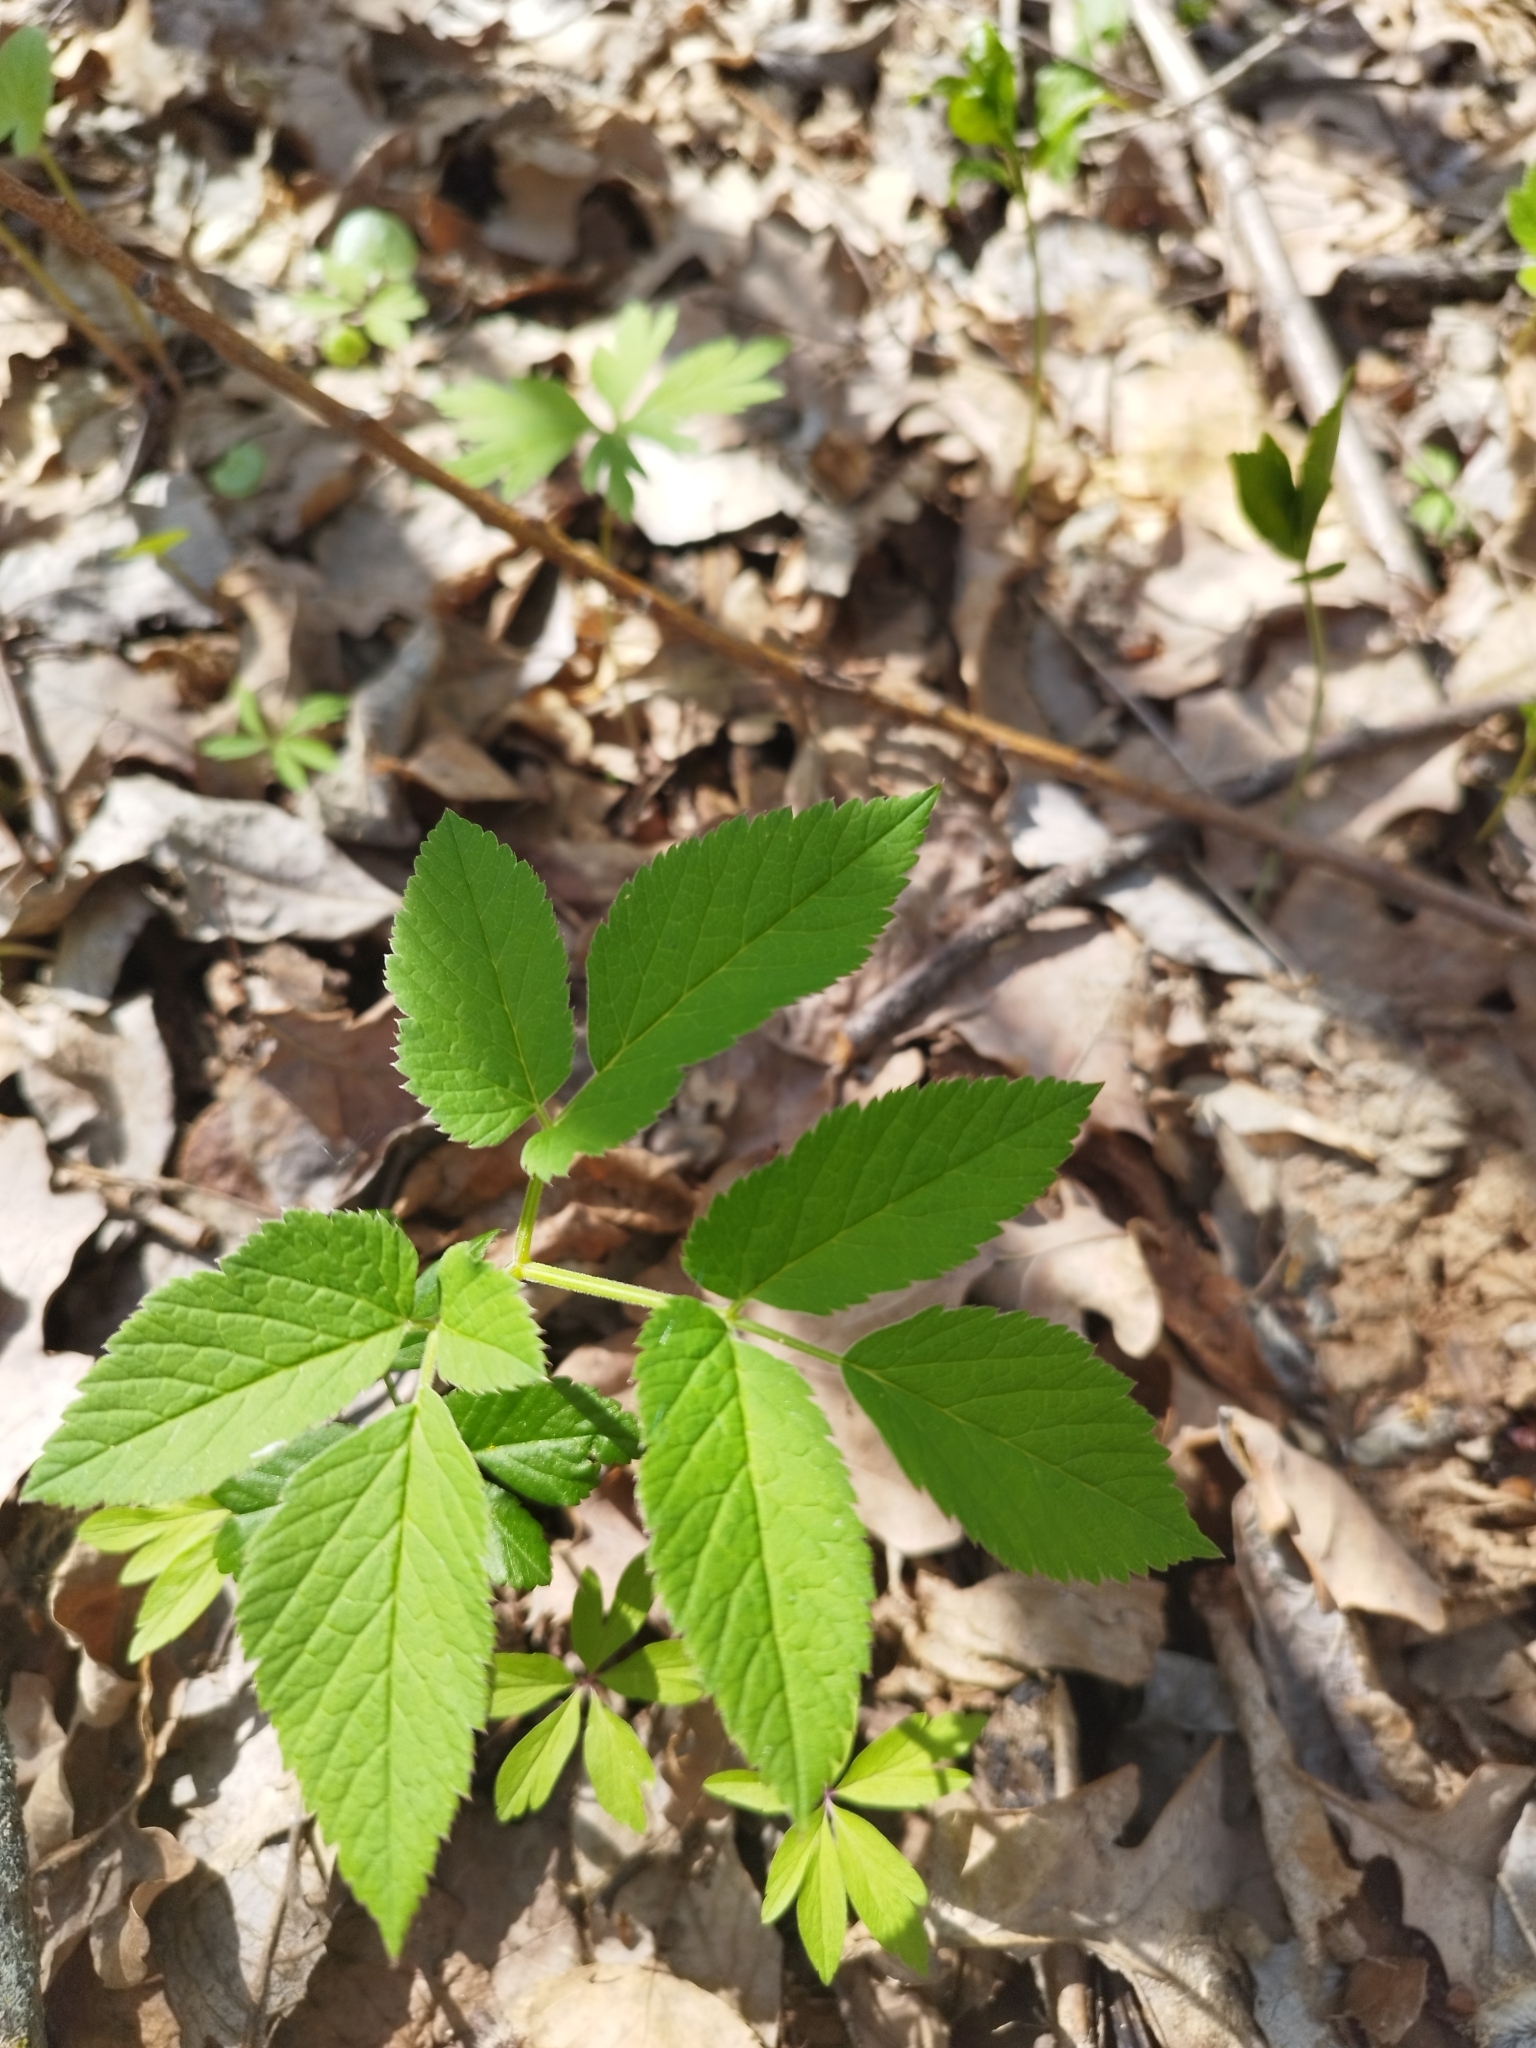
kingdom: Plantae
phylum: Tracheophyta
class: Magnoliopsida
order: Apiales
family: Apiaceae
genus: Aegopodium
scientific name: Aegopodium podagraria
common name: Ground-elder
